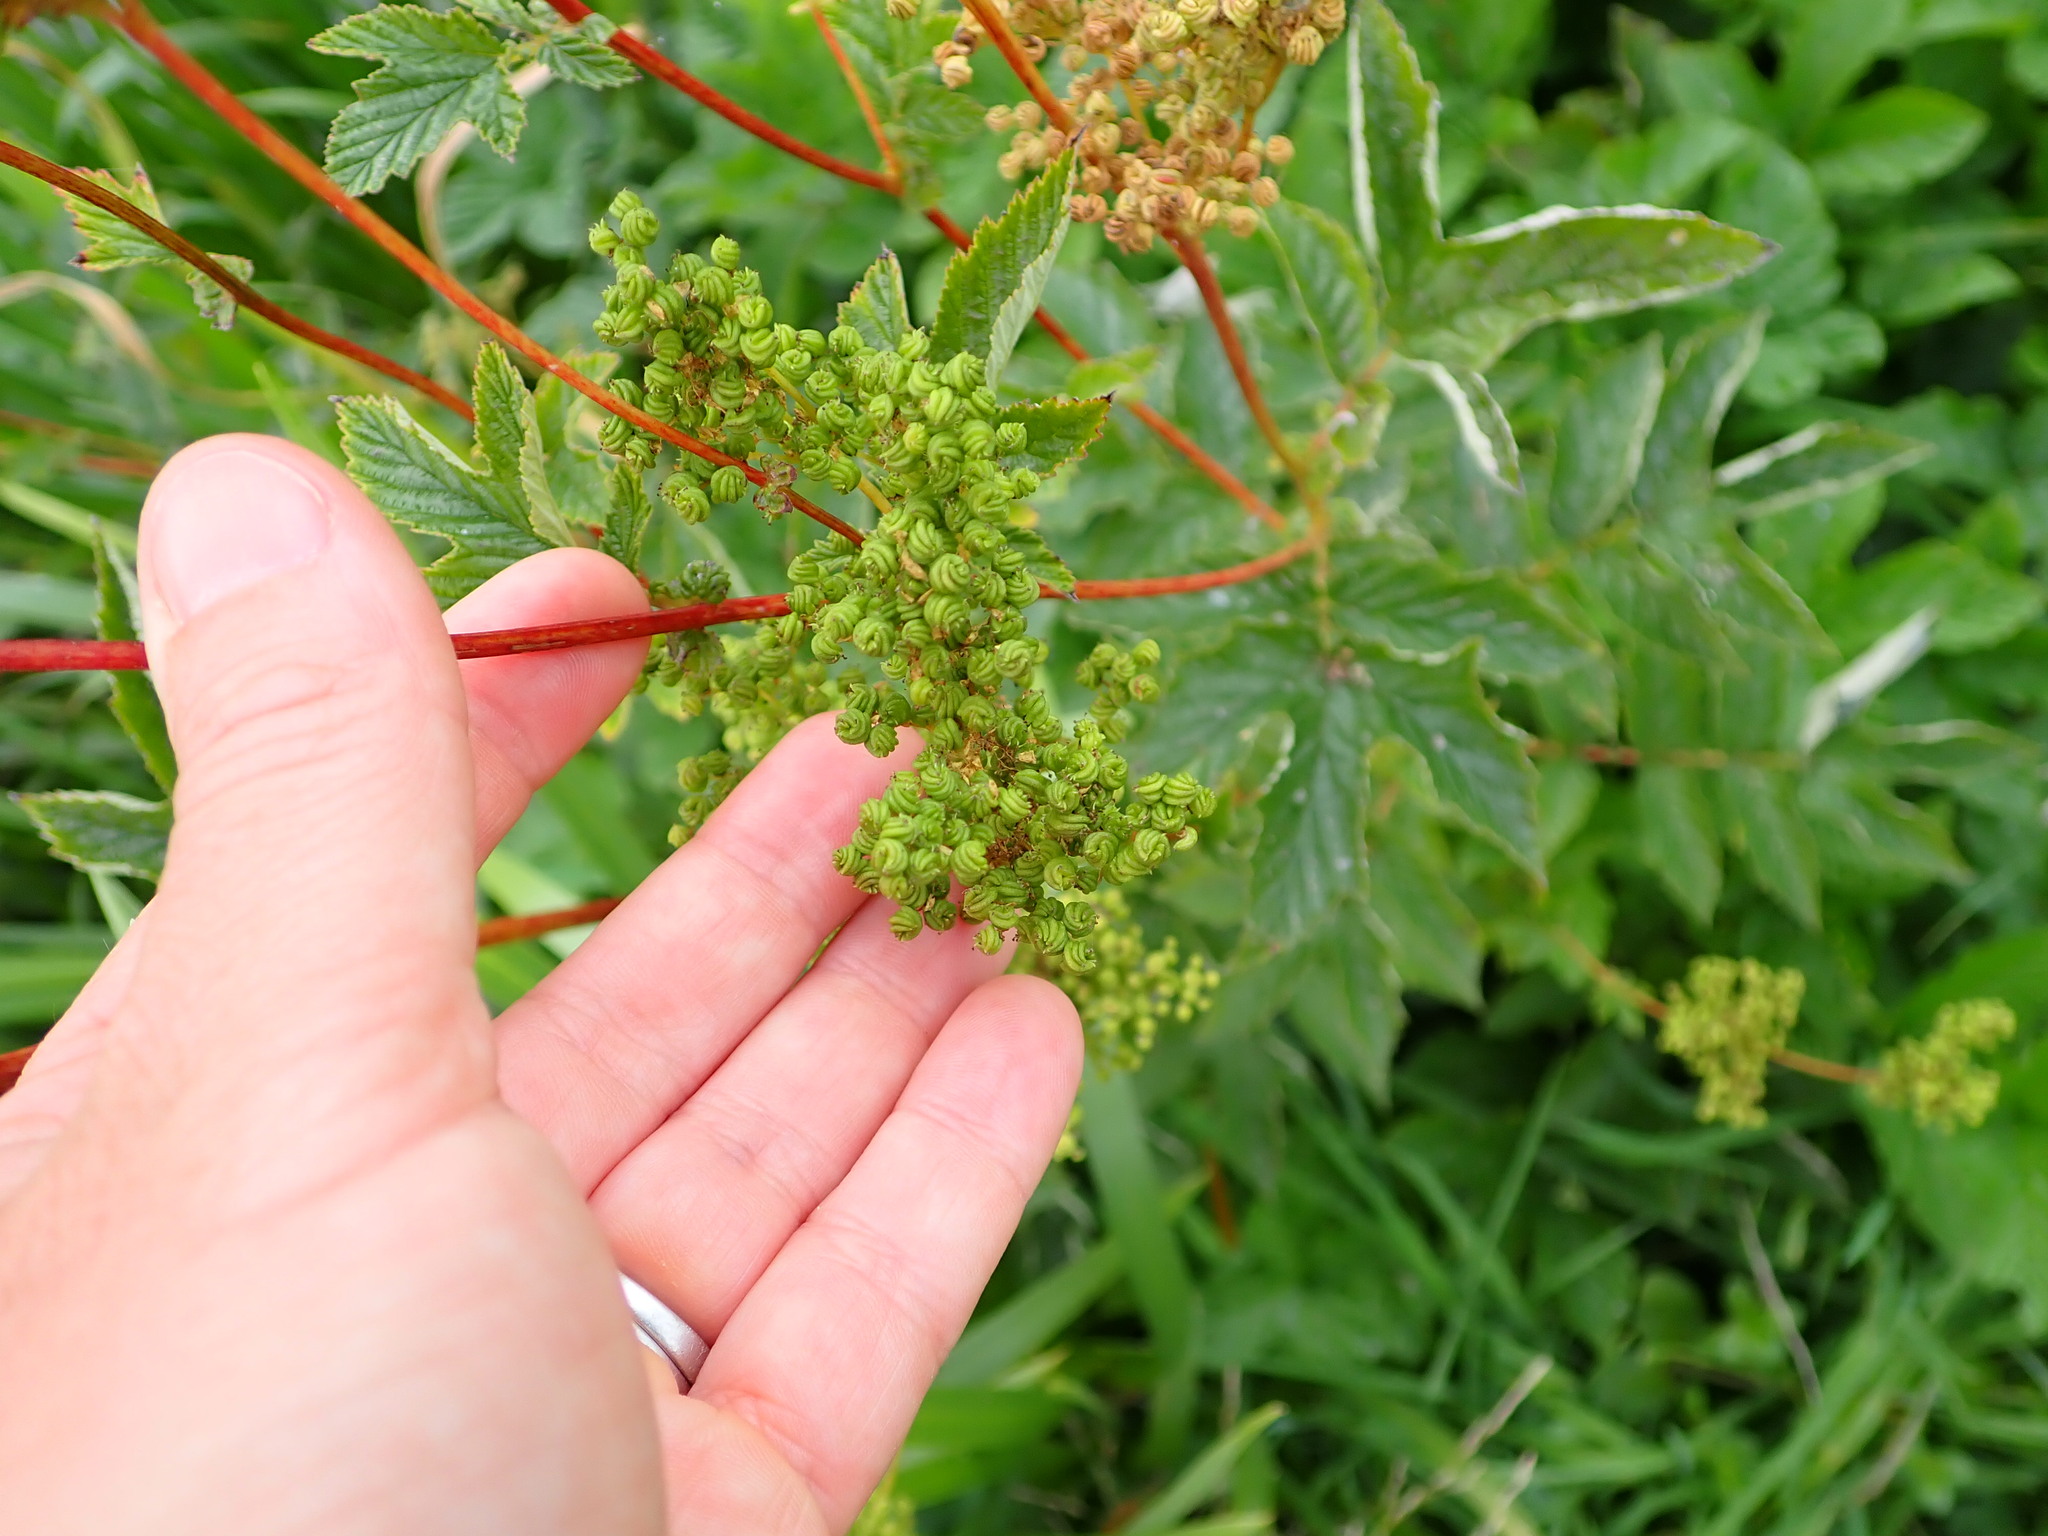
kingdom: Plantae
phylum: Tracheophyta
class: Magnoliopsida
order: Rosales
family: Rosaceae
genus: Filipendula
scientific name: Filipendula ulmaria
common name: Meadowsweet
